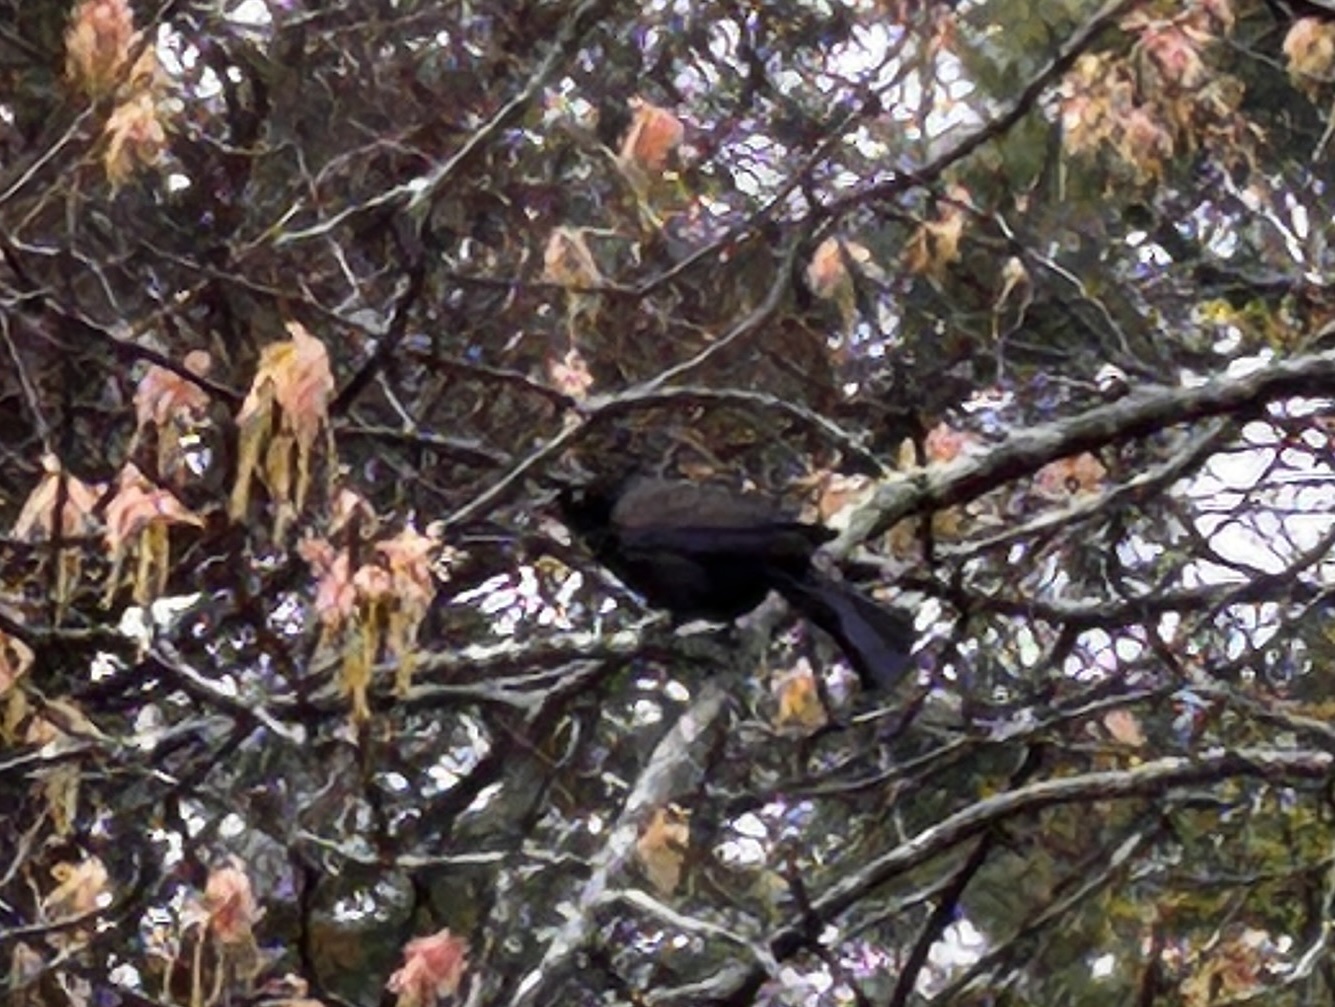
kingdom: Animalia
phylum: Chordata
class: Aves
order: Passeriformes
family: Icteridae
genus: Quiscalus
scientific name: Quiscalus quiscula
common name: Common grackle
